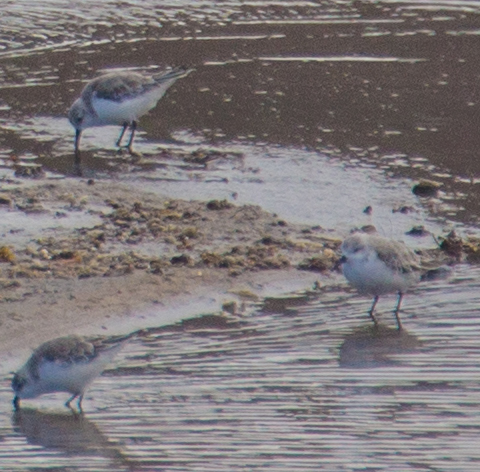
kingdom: Animalia
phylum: Chordata
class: Aves
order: Charadriiformes
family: Scolopacidae
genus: Calidris
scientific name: Calidris alba
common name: Sanderling
